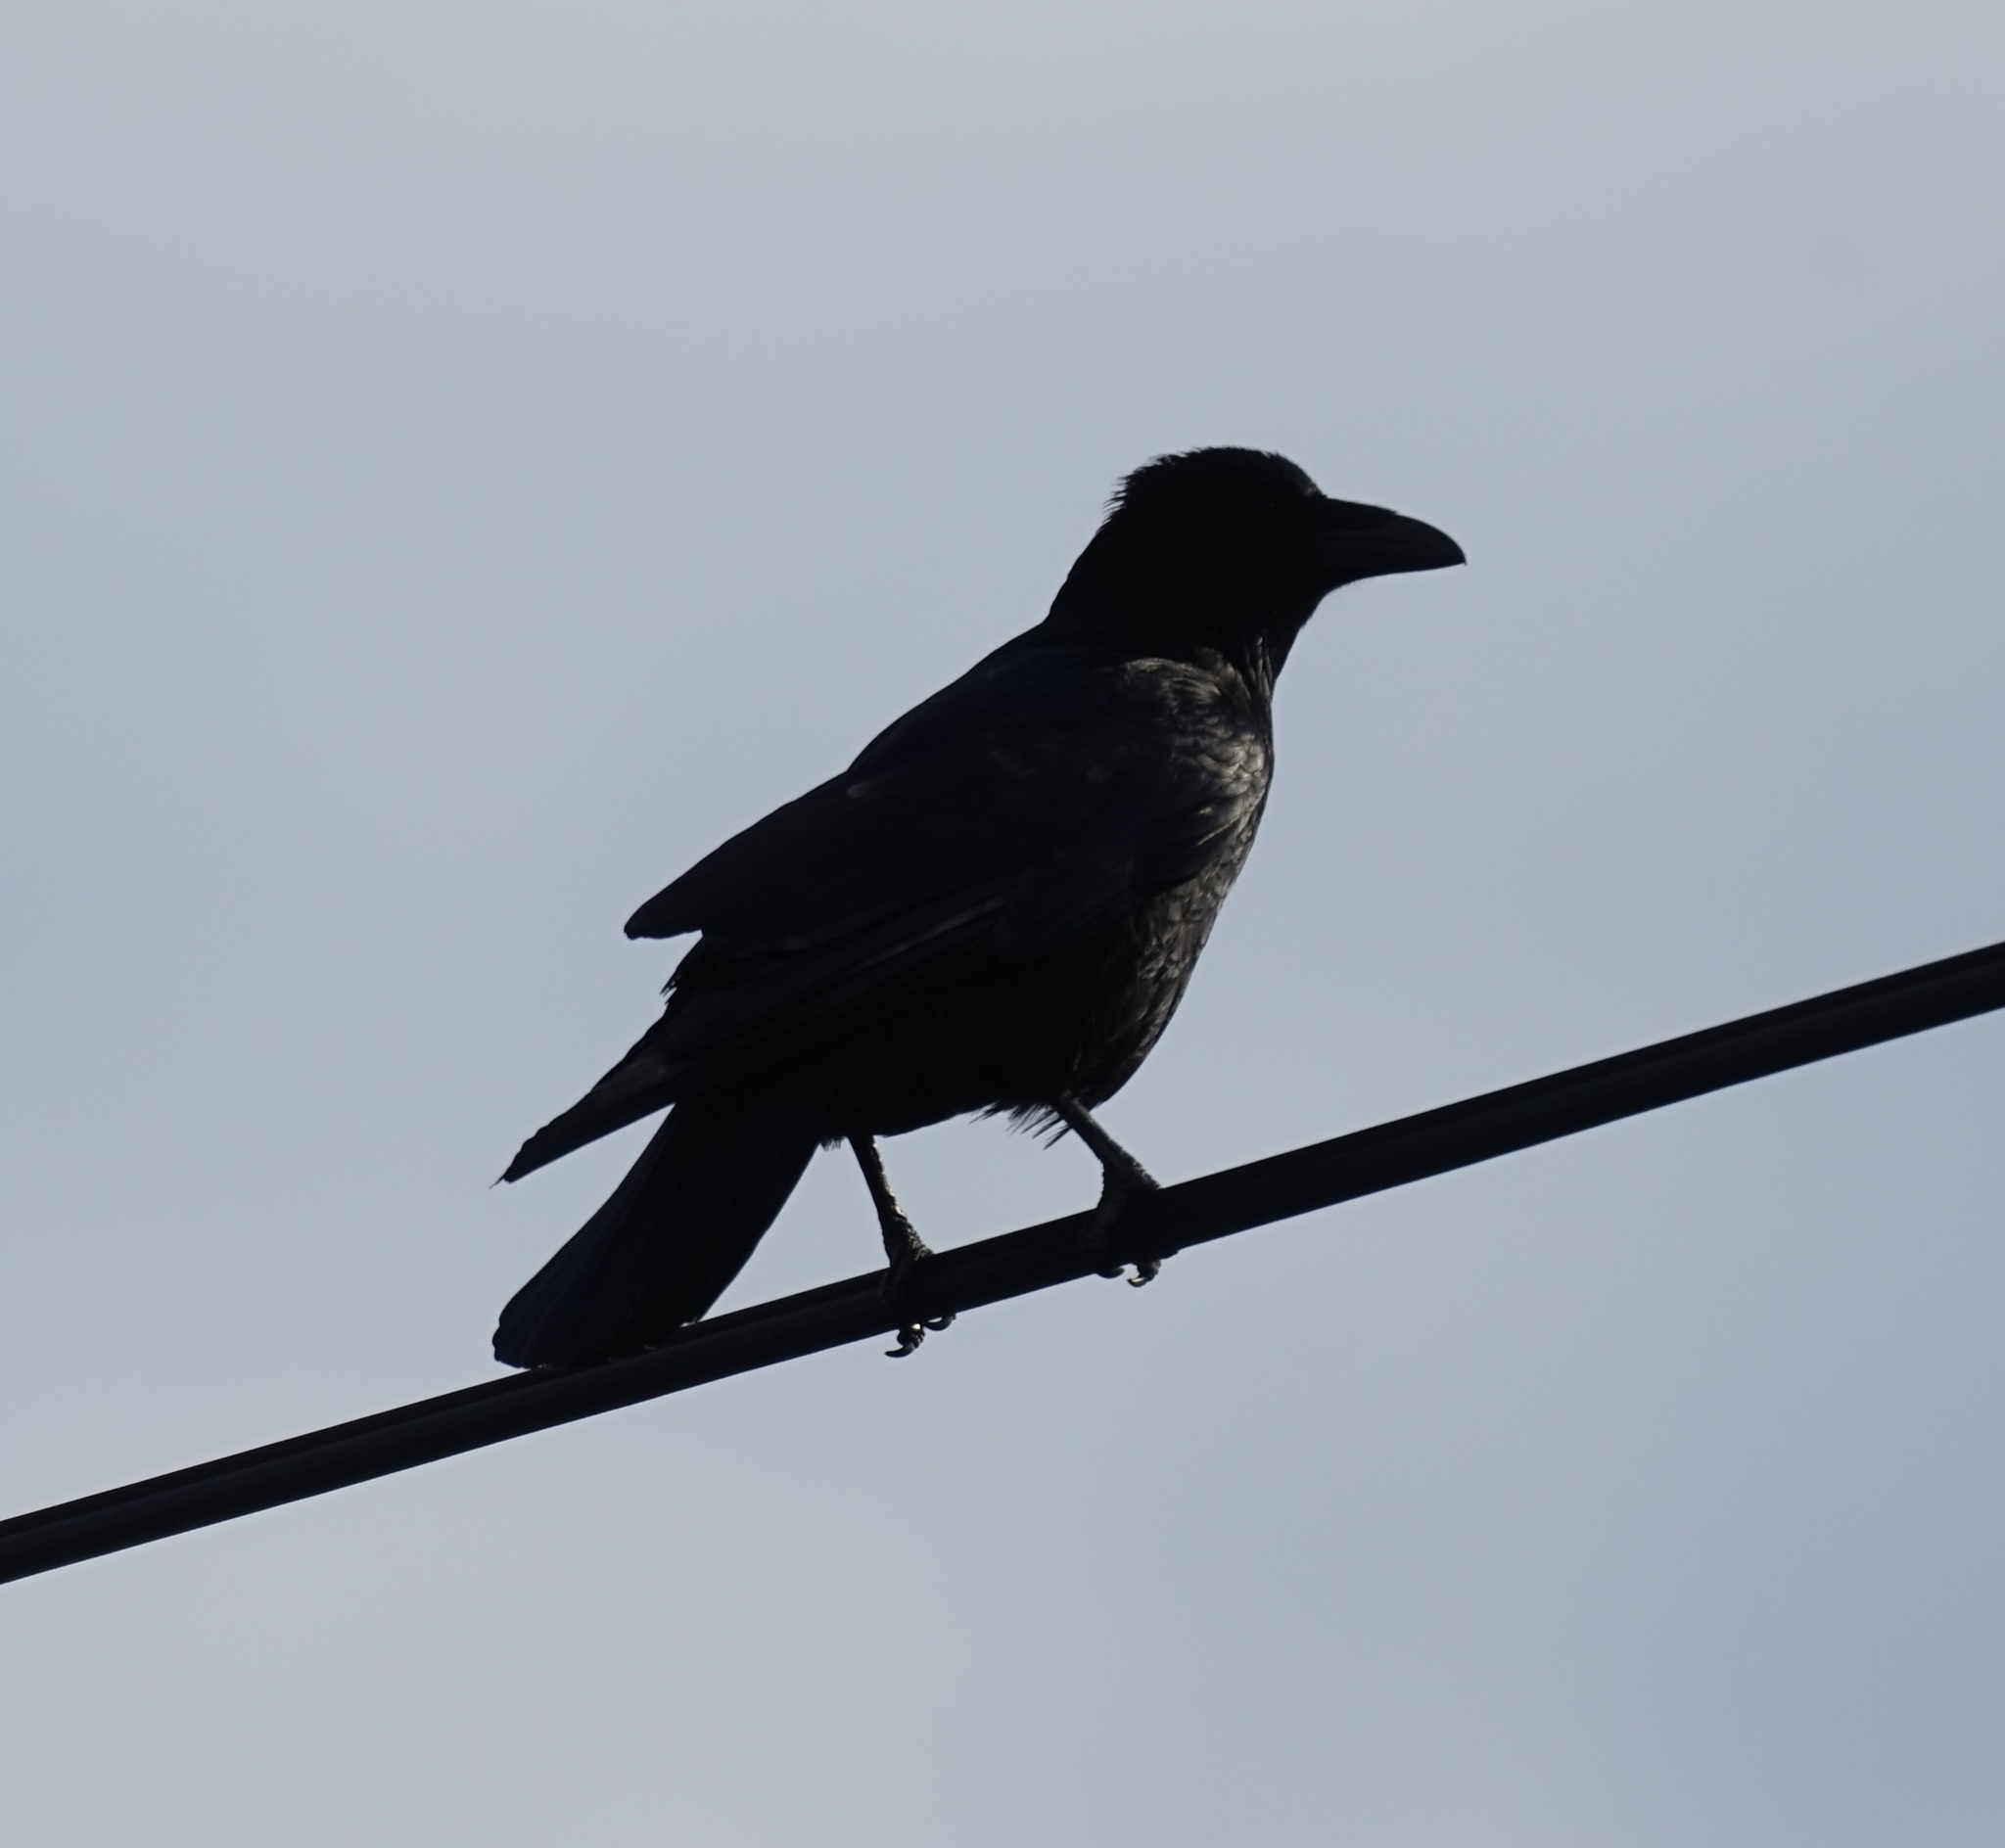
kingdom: Animalia
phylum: Chordata
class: Aves
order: Passeriformes
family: Corvidae
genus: Corvus
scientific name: Corvus corone
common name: Carrion crow
